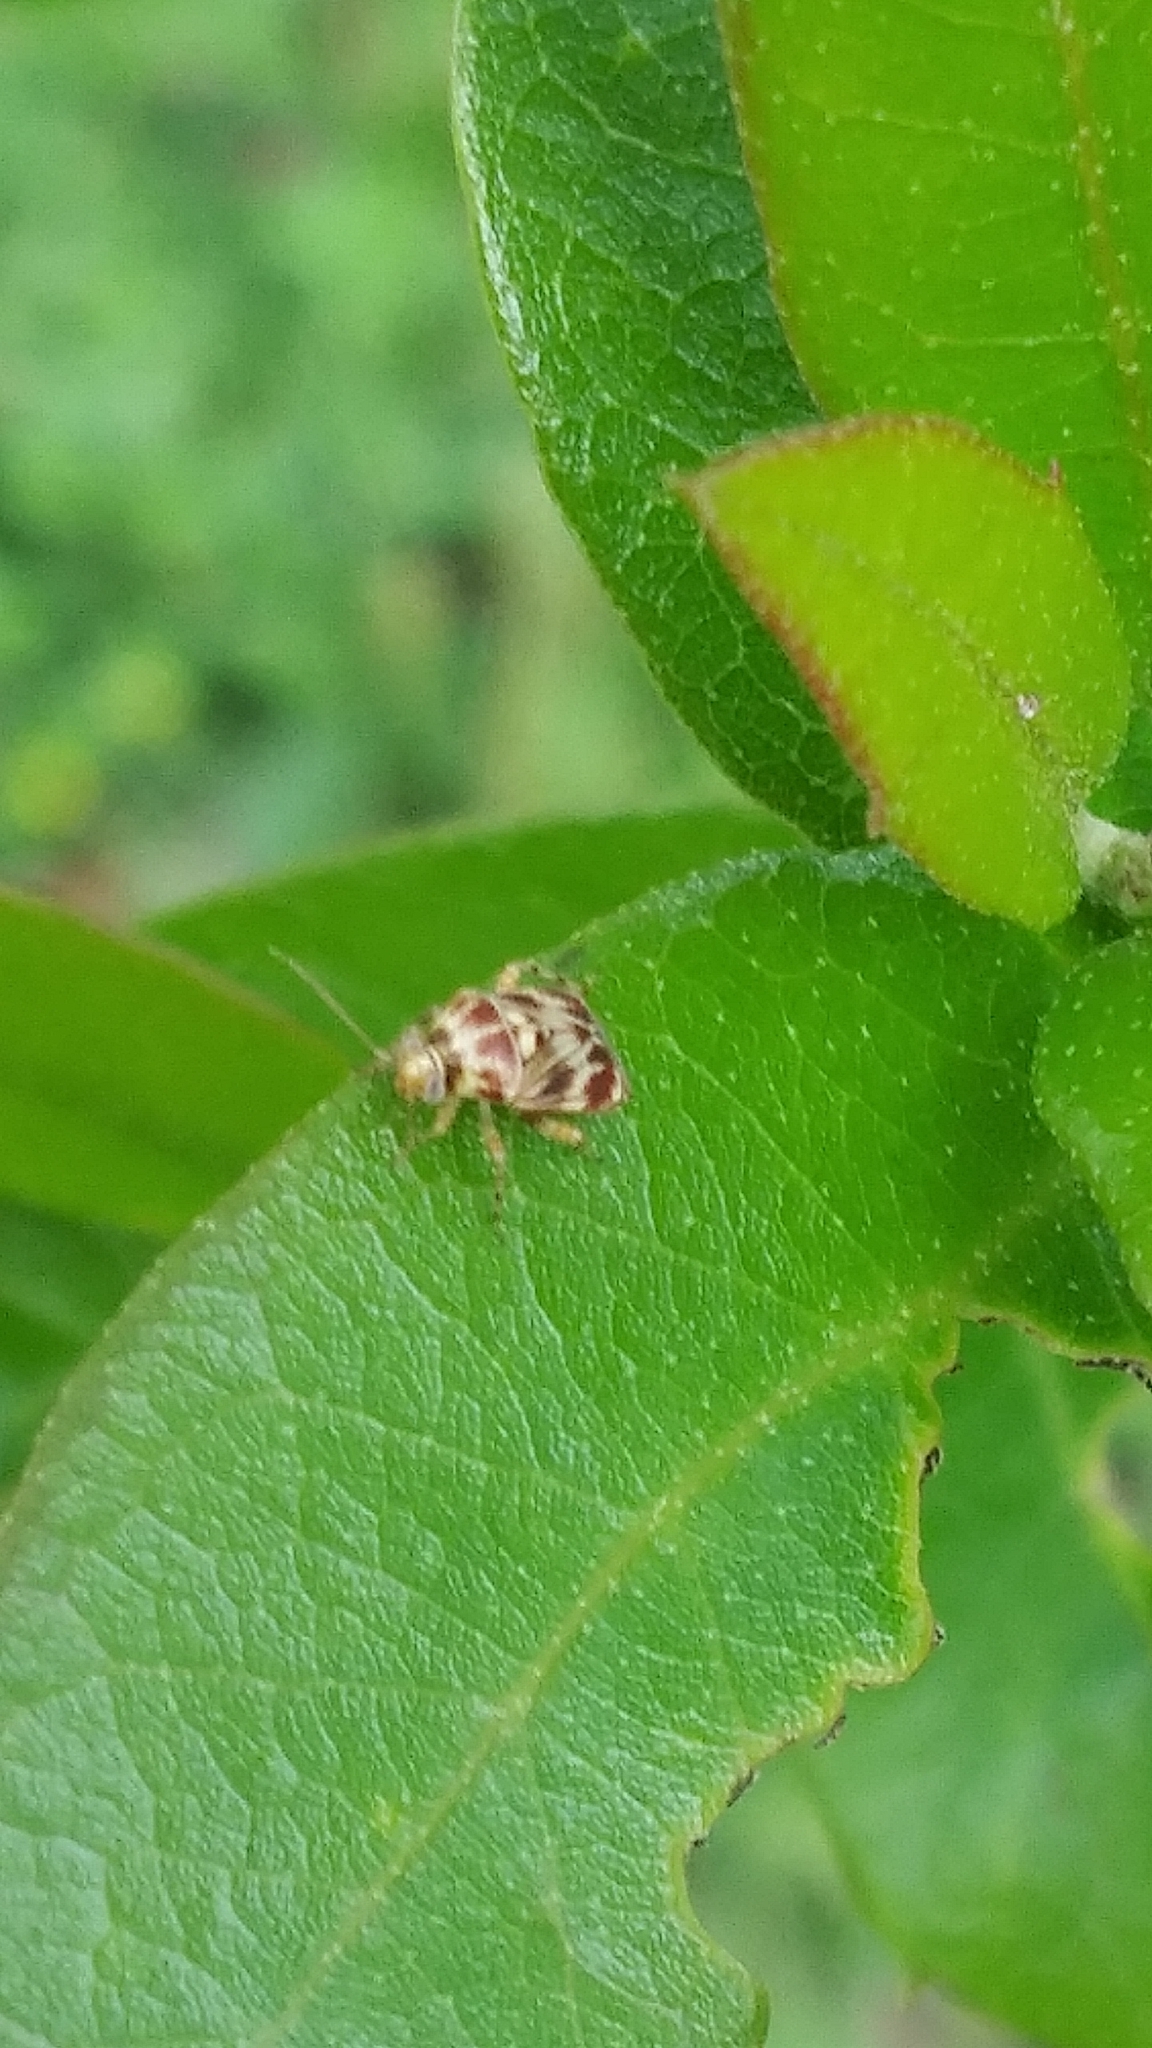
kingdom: Animalia
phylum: Arthropoda
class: Insecta
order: Hemiptera
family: Miridae
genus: Tropidosteptes
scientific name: Tropidosteptes quercicola
